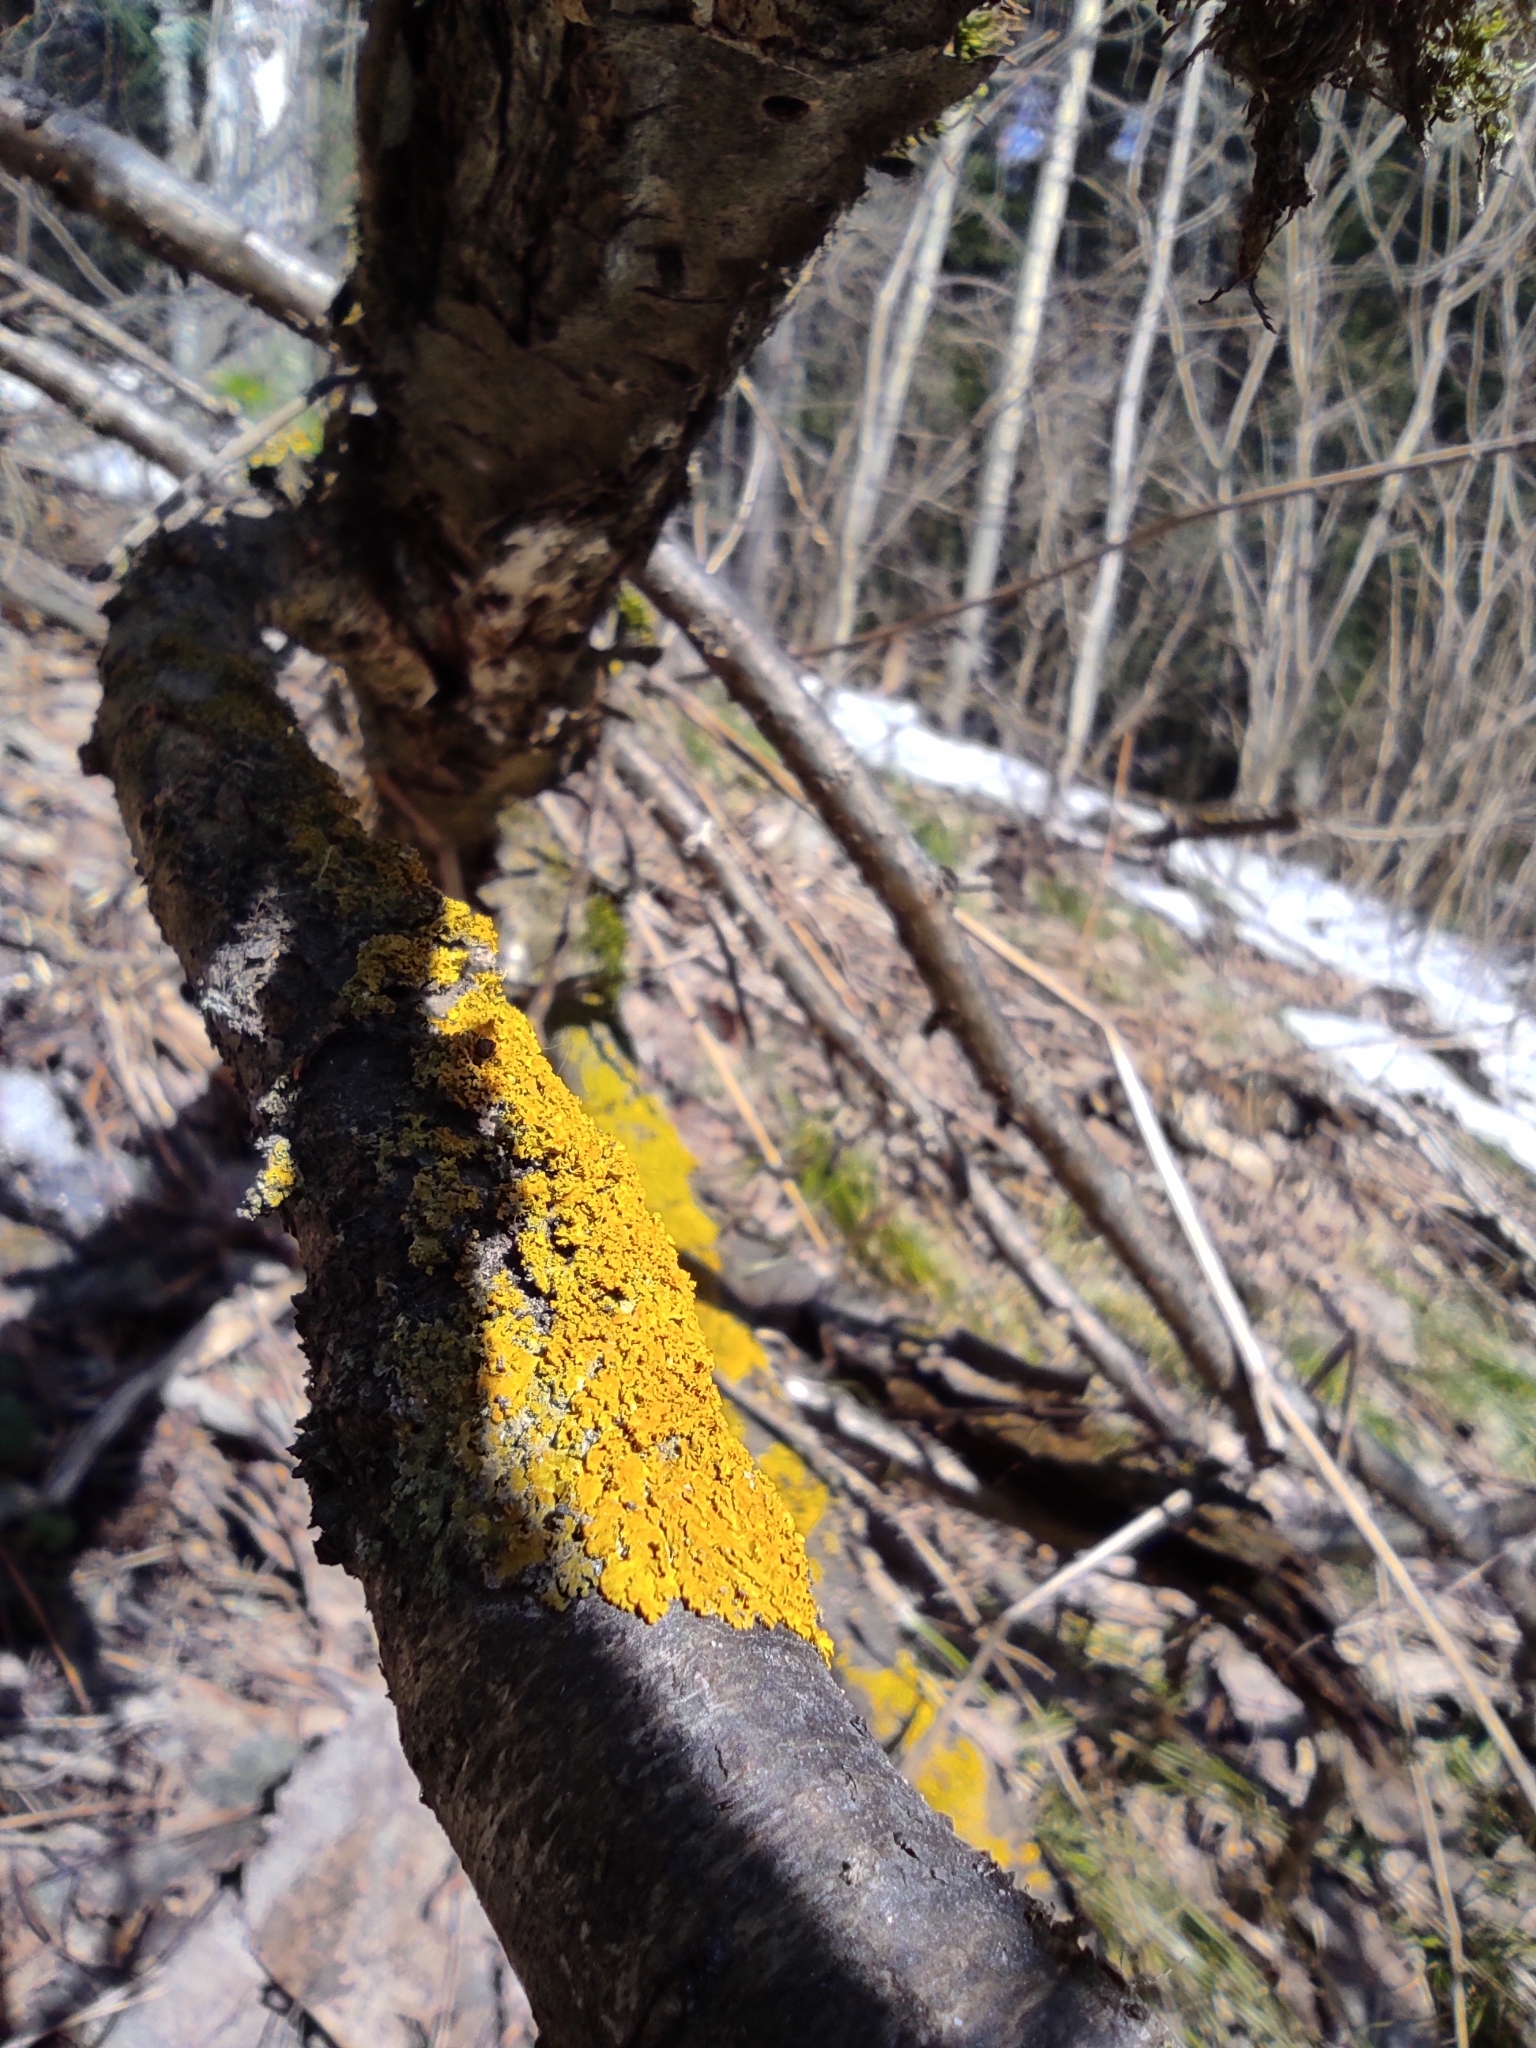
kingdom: Fungi
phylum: Ascomycota
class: Lecanoromycetes
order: Teloschistales
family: Teloschistaceae
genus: Xanthoria
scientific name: Xanthoria parietina
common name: Common orange lichen
